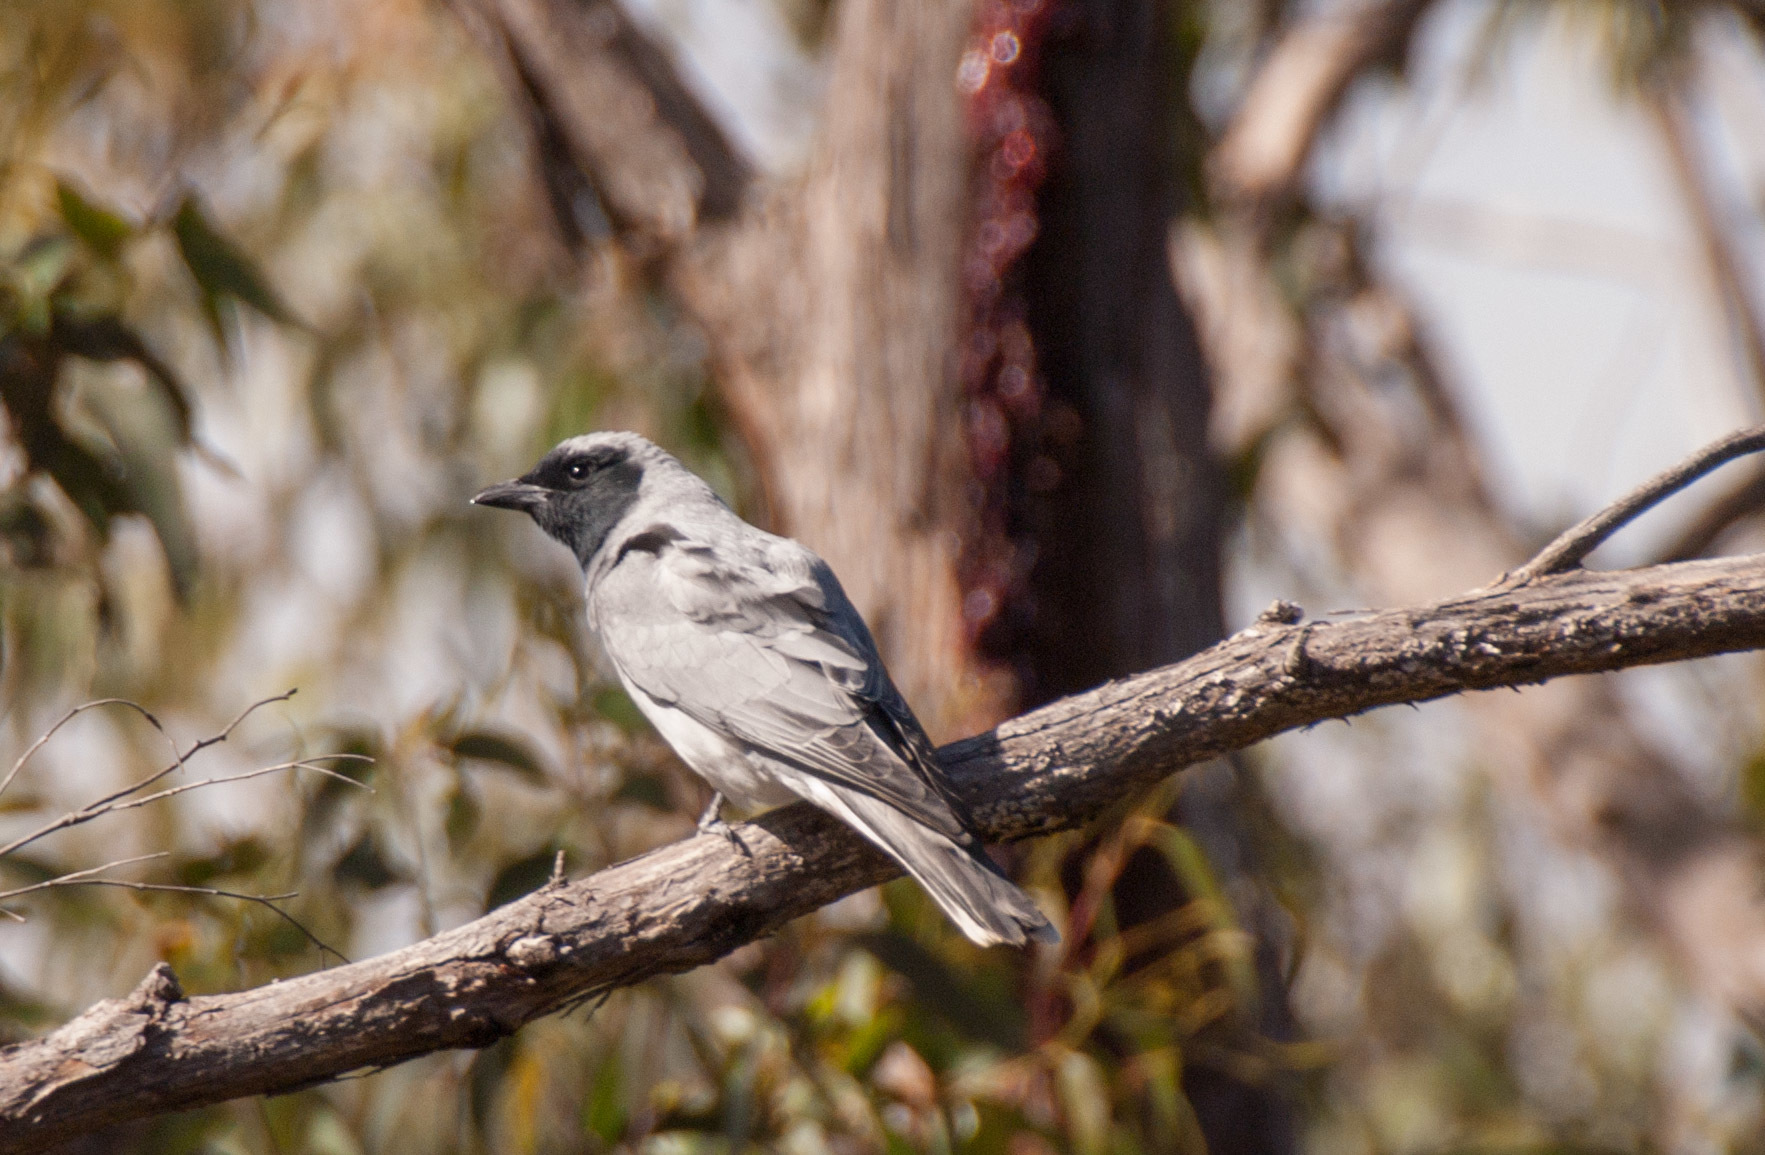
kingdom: Animalia
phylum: Chordata
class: Aves
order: Passeriformes
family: Campephagidae
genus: Coracina
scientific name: Coracina novaehollandiae
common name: Black-faced cuckooshrike
